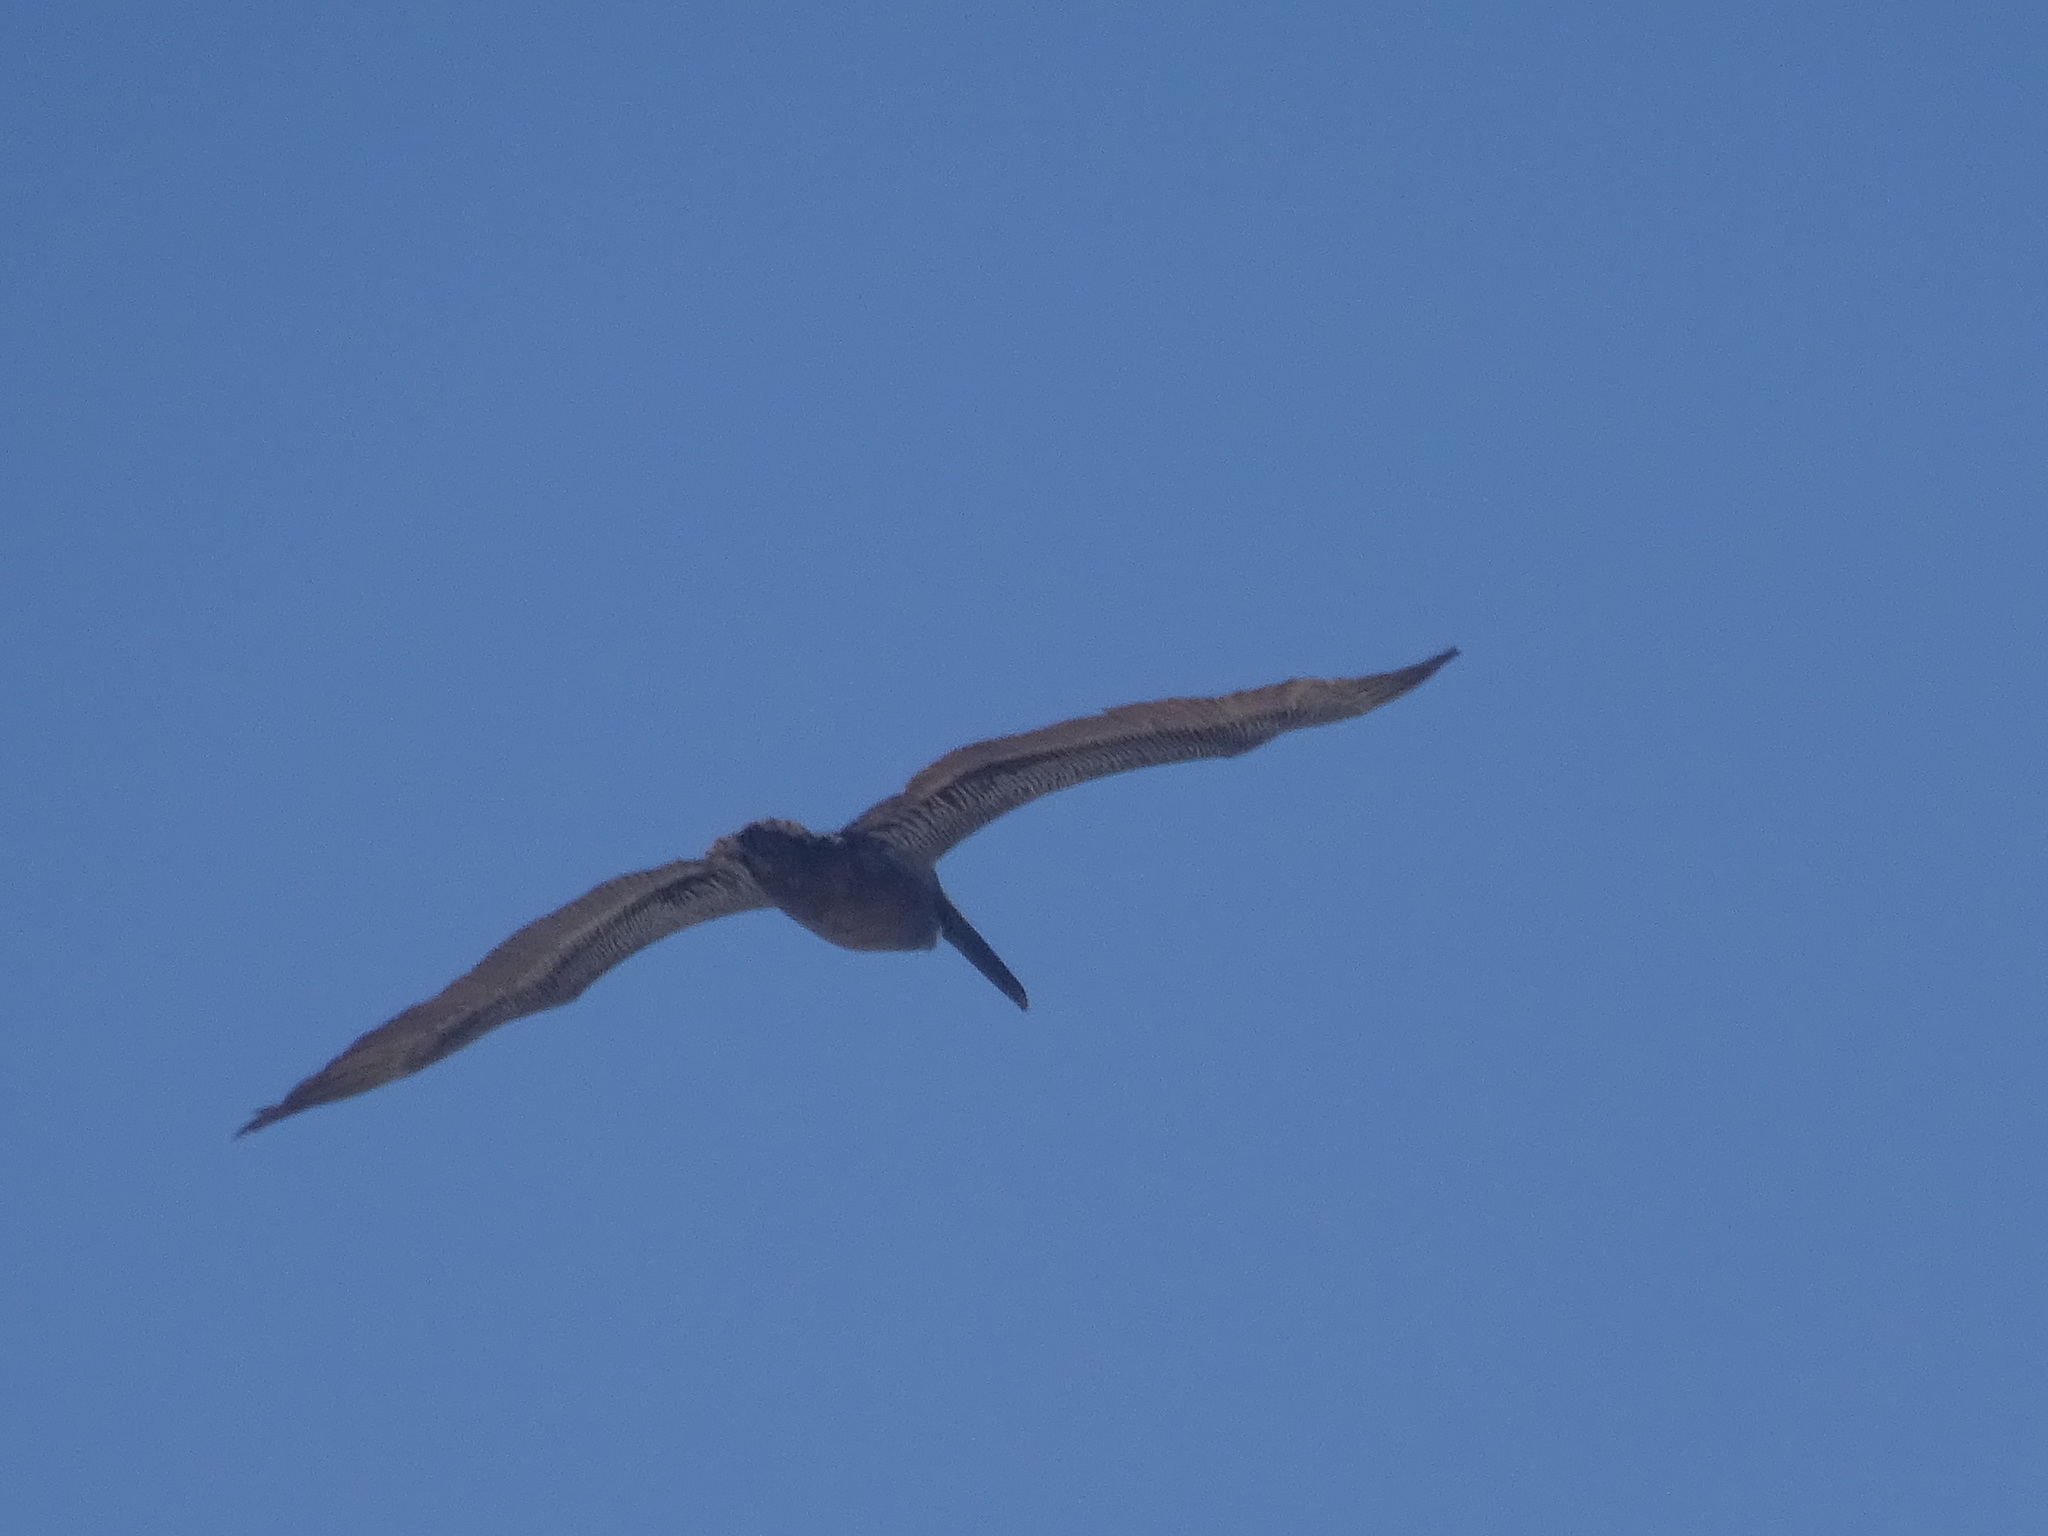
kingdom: Animalia
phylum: Chordata
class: Aves
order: Pelecaniformes
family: Pelecanidae
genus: Pelecanus
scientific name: Pelecanus occidentalis
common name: Brown pelican
